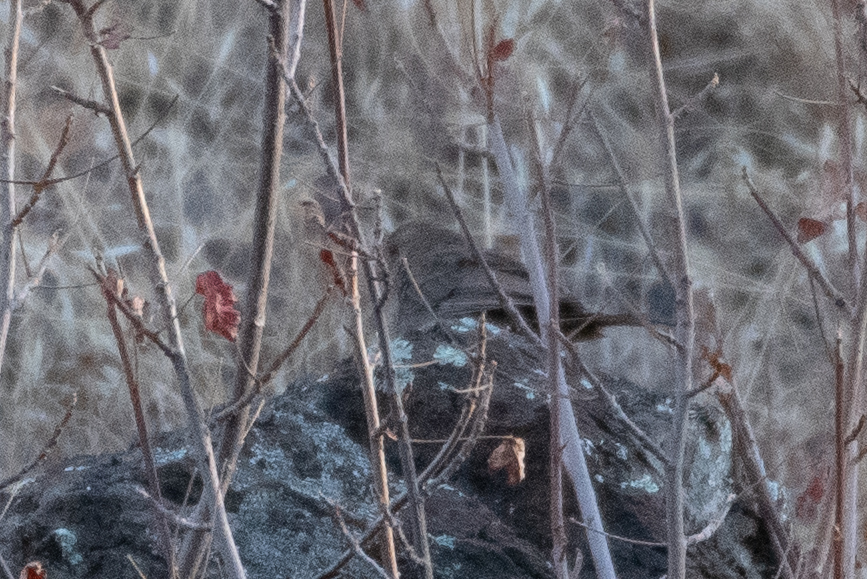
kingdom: Animalia
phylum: Chordata
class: Aves
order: Passeriformes
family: Passerellidae
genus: Melozone
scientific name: Melozone crissalis
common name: California towhee
